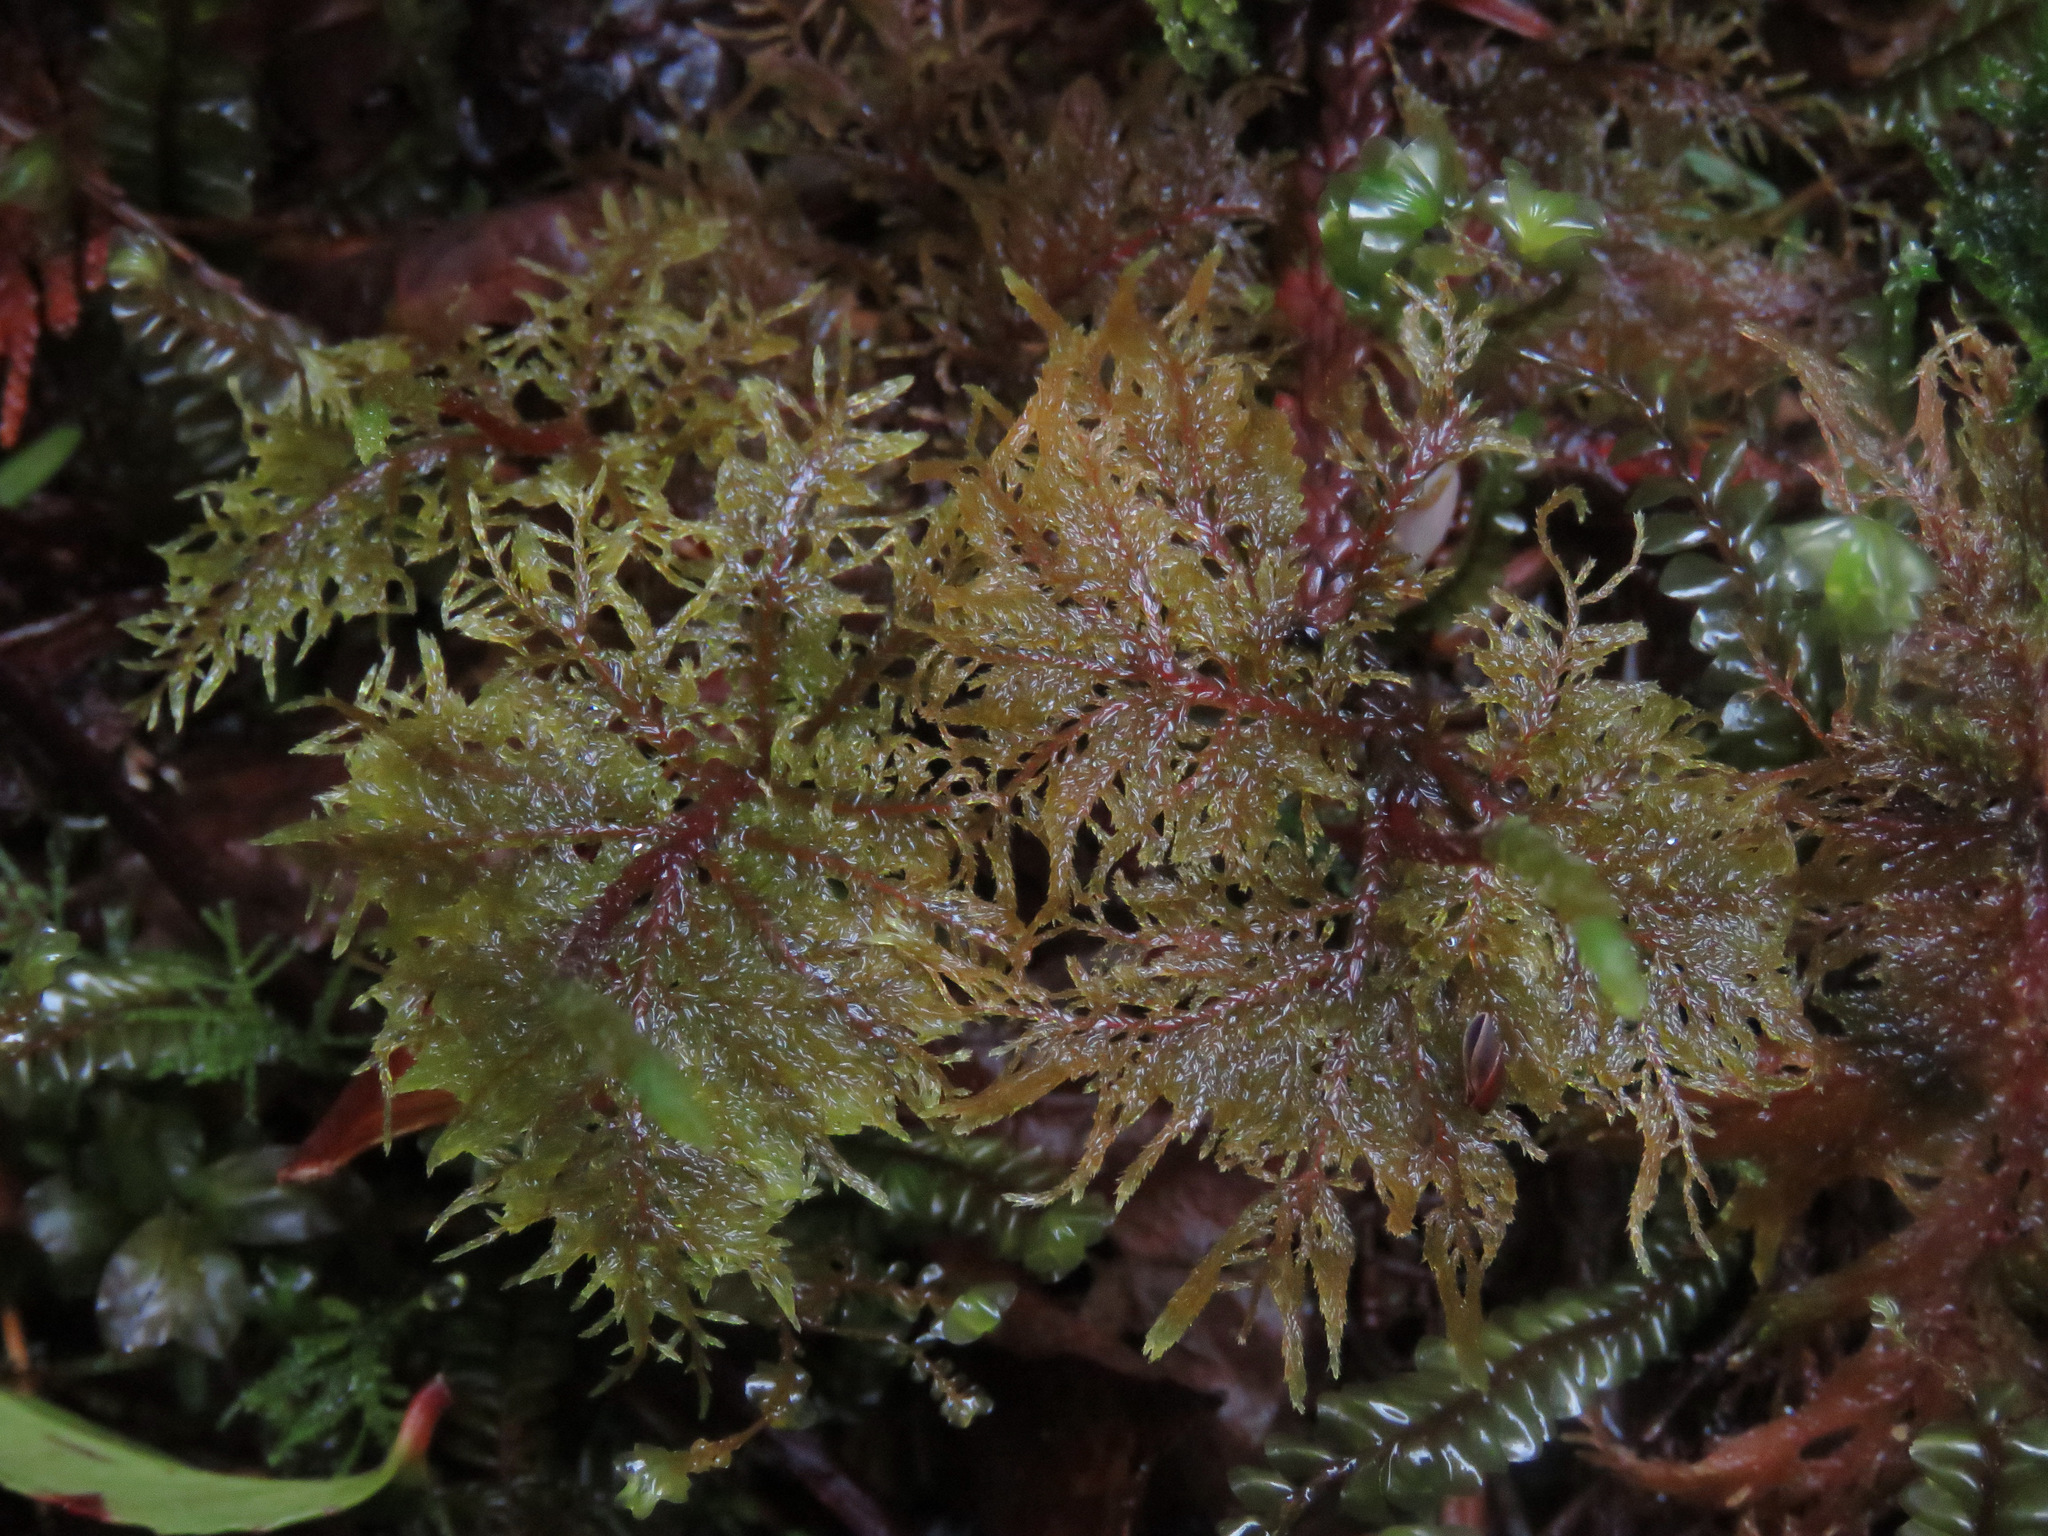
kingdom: Plantae
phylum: Bryophyta
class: Bryopsida
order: Hypnales
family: Hylocomiaceae
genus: Hylocomium
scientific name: Hylocomium splendens
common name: Stairstep moss
